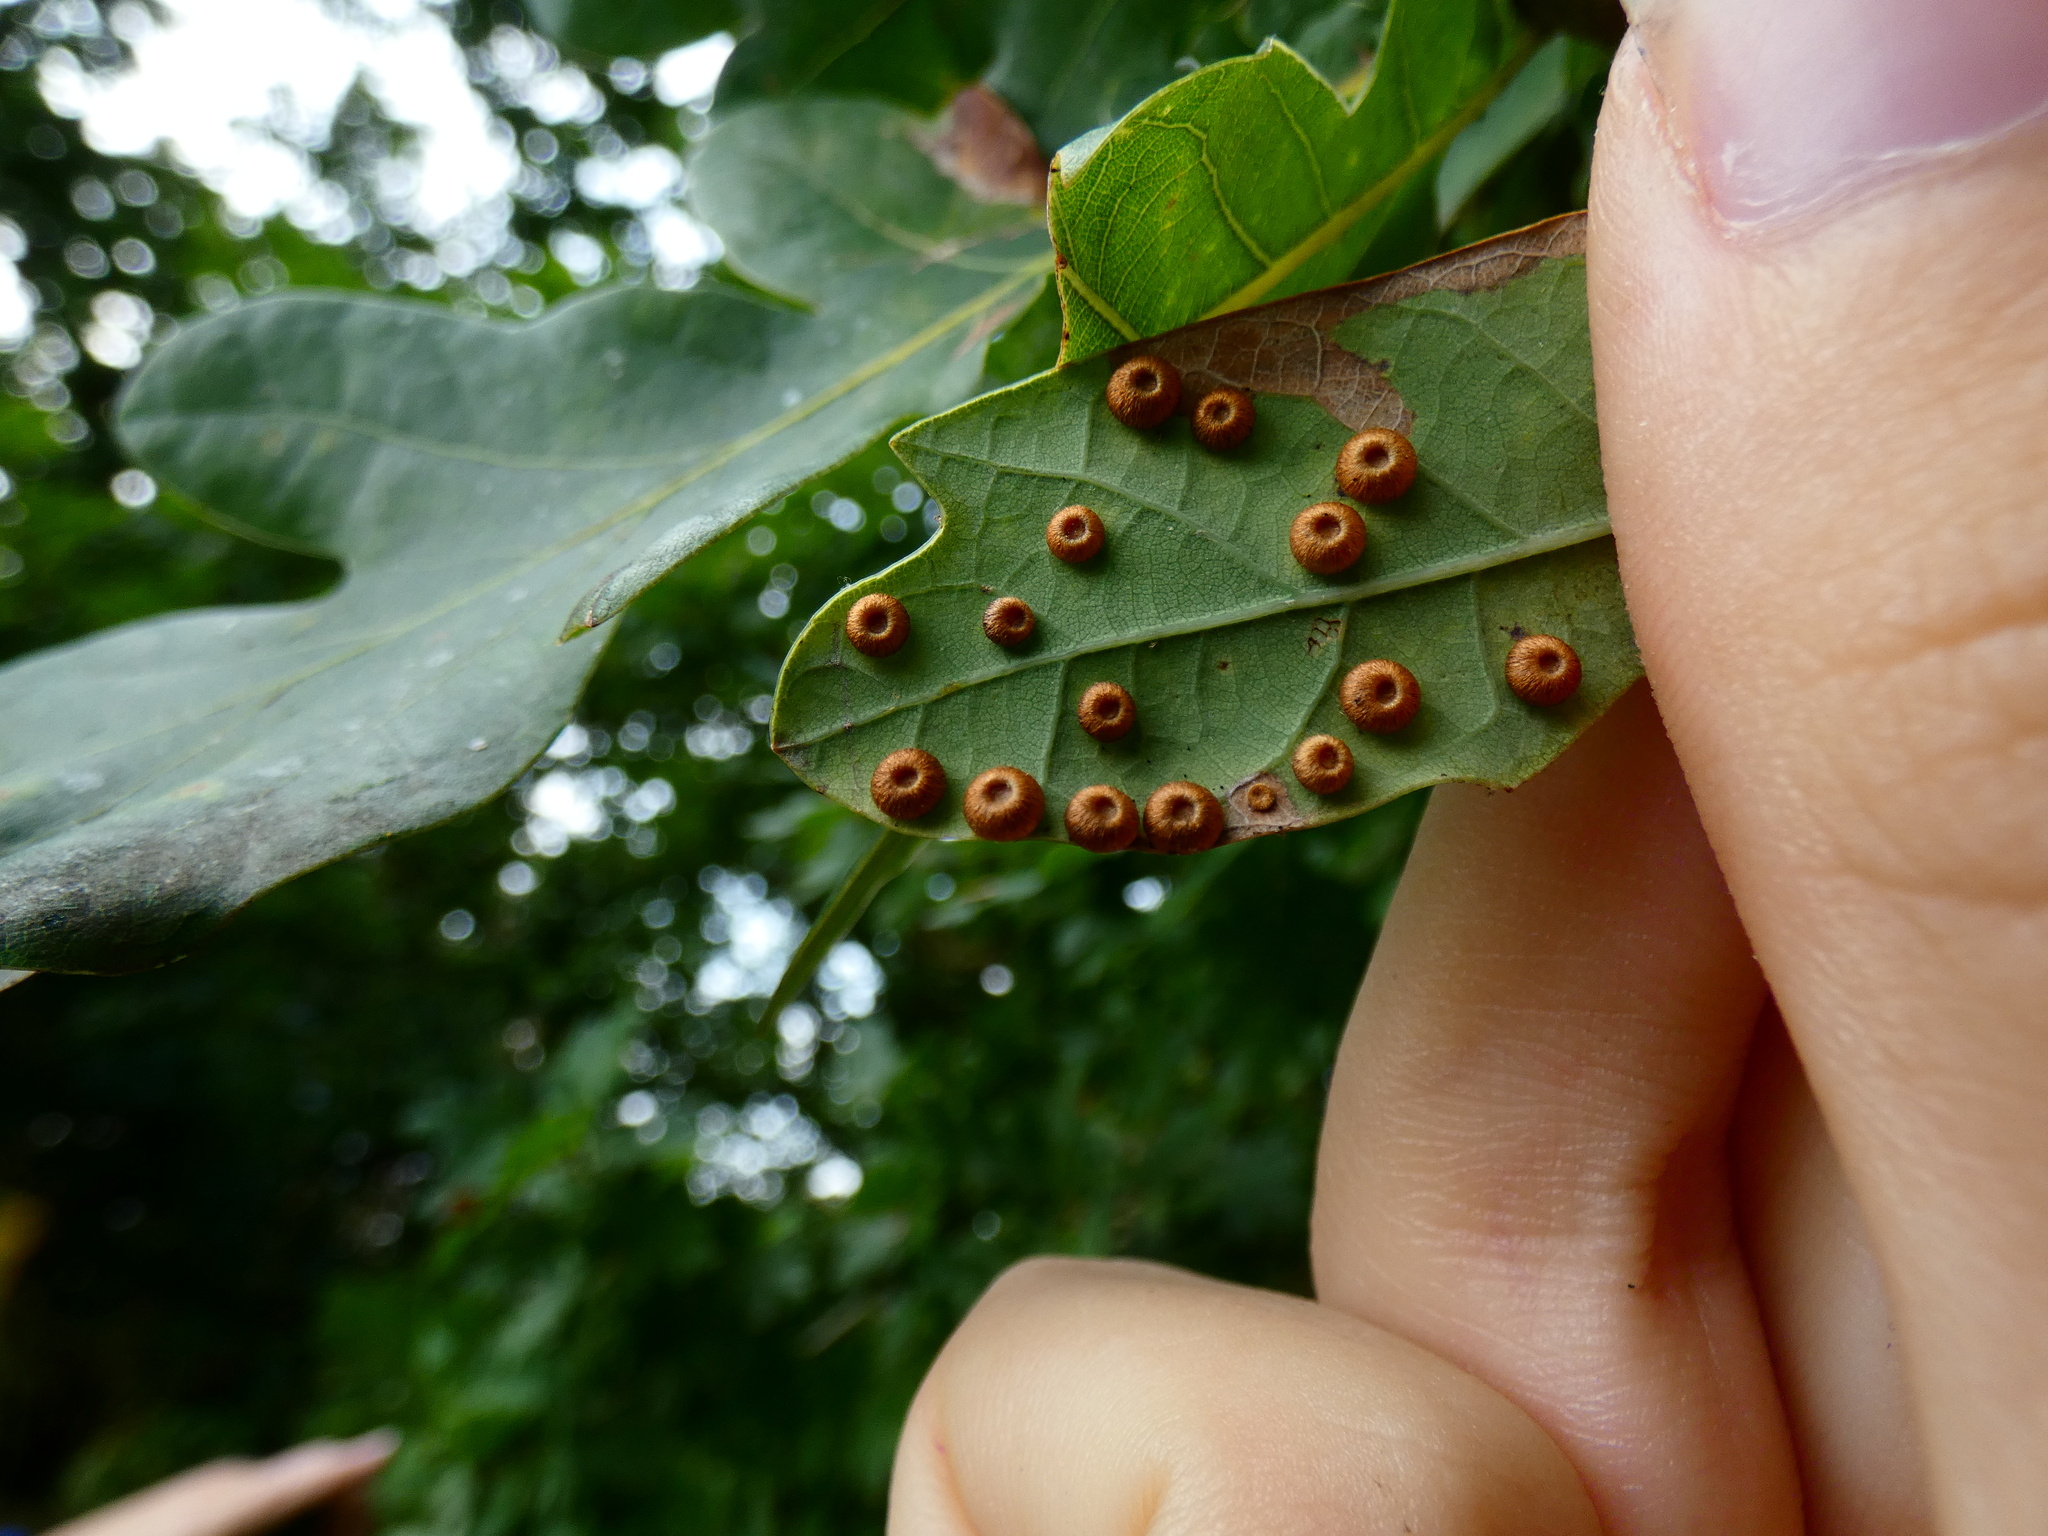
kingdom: Animalia
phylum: Arthropoda
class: Insecta
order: Hymenoptera
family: Cynipidae
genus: Neuroterus
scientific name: Neuroterus numismalis
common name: Silk-button spangle gall
